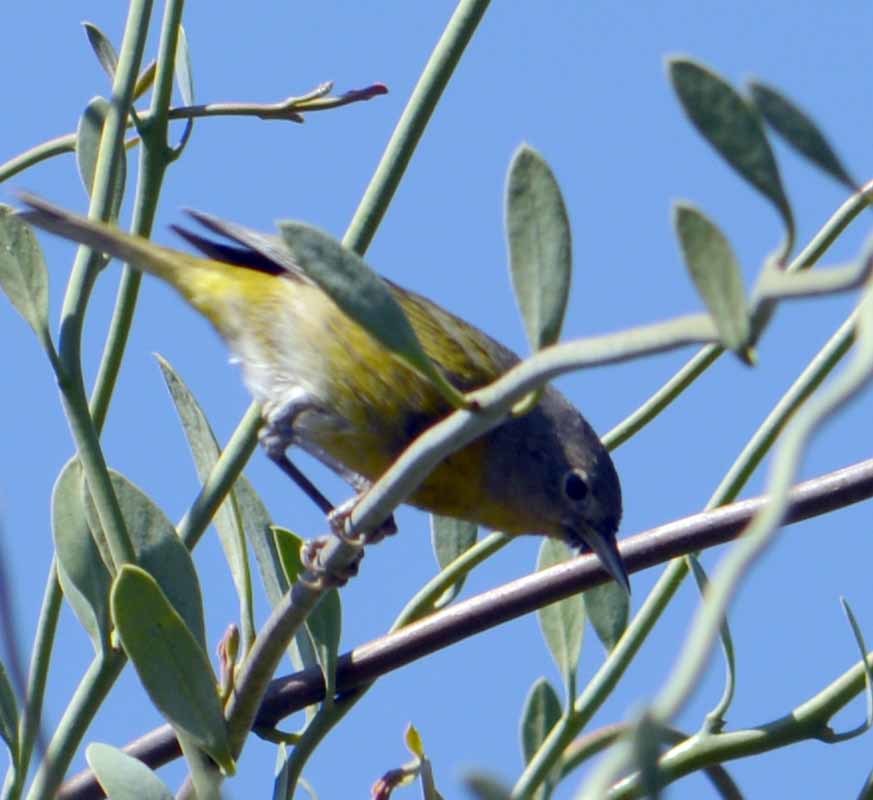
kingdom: Animalia
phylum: Chordata
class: Aves
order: Passeriformes
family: Parulidae
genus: Leiothlypis
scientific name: Leiothlypis ruficapilla
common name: Nashville warbler
